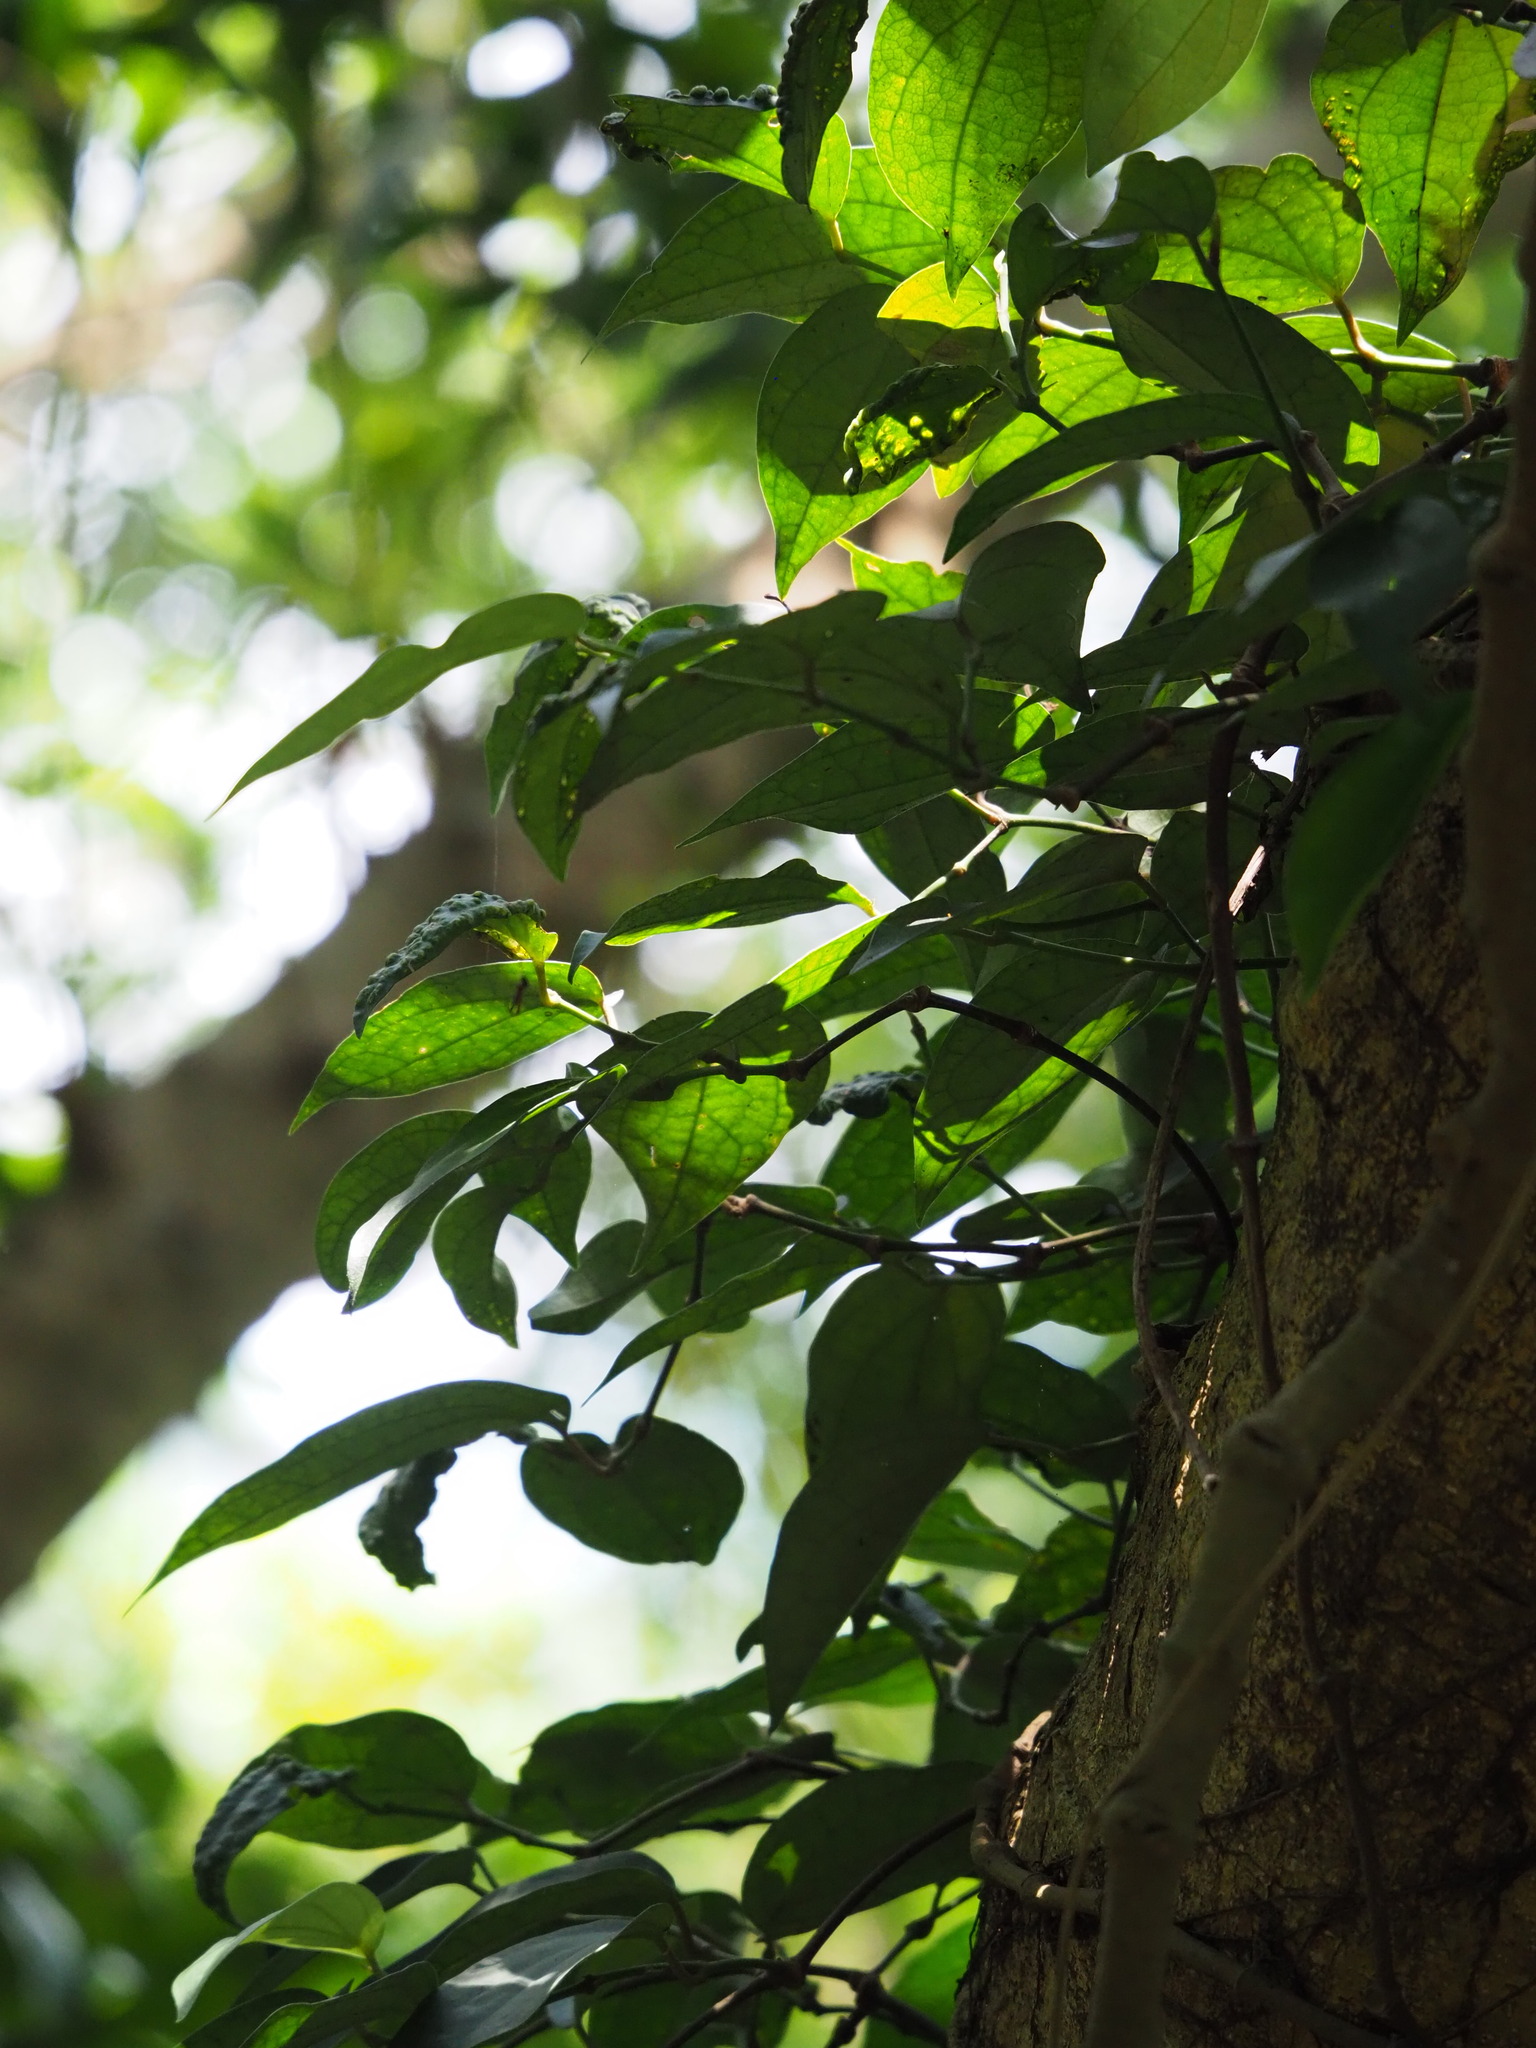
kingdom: Plantae
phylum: Tracheophyta
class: Magnoliopsida
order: Piperales
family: Piperaceae
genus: Piper
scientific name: Piper kadsura
